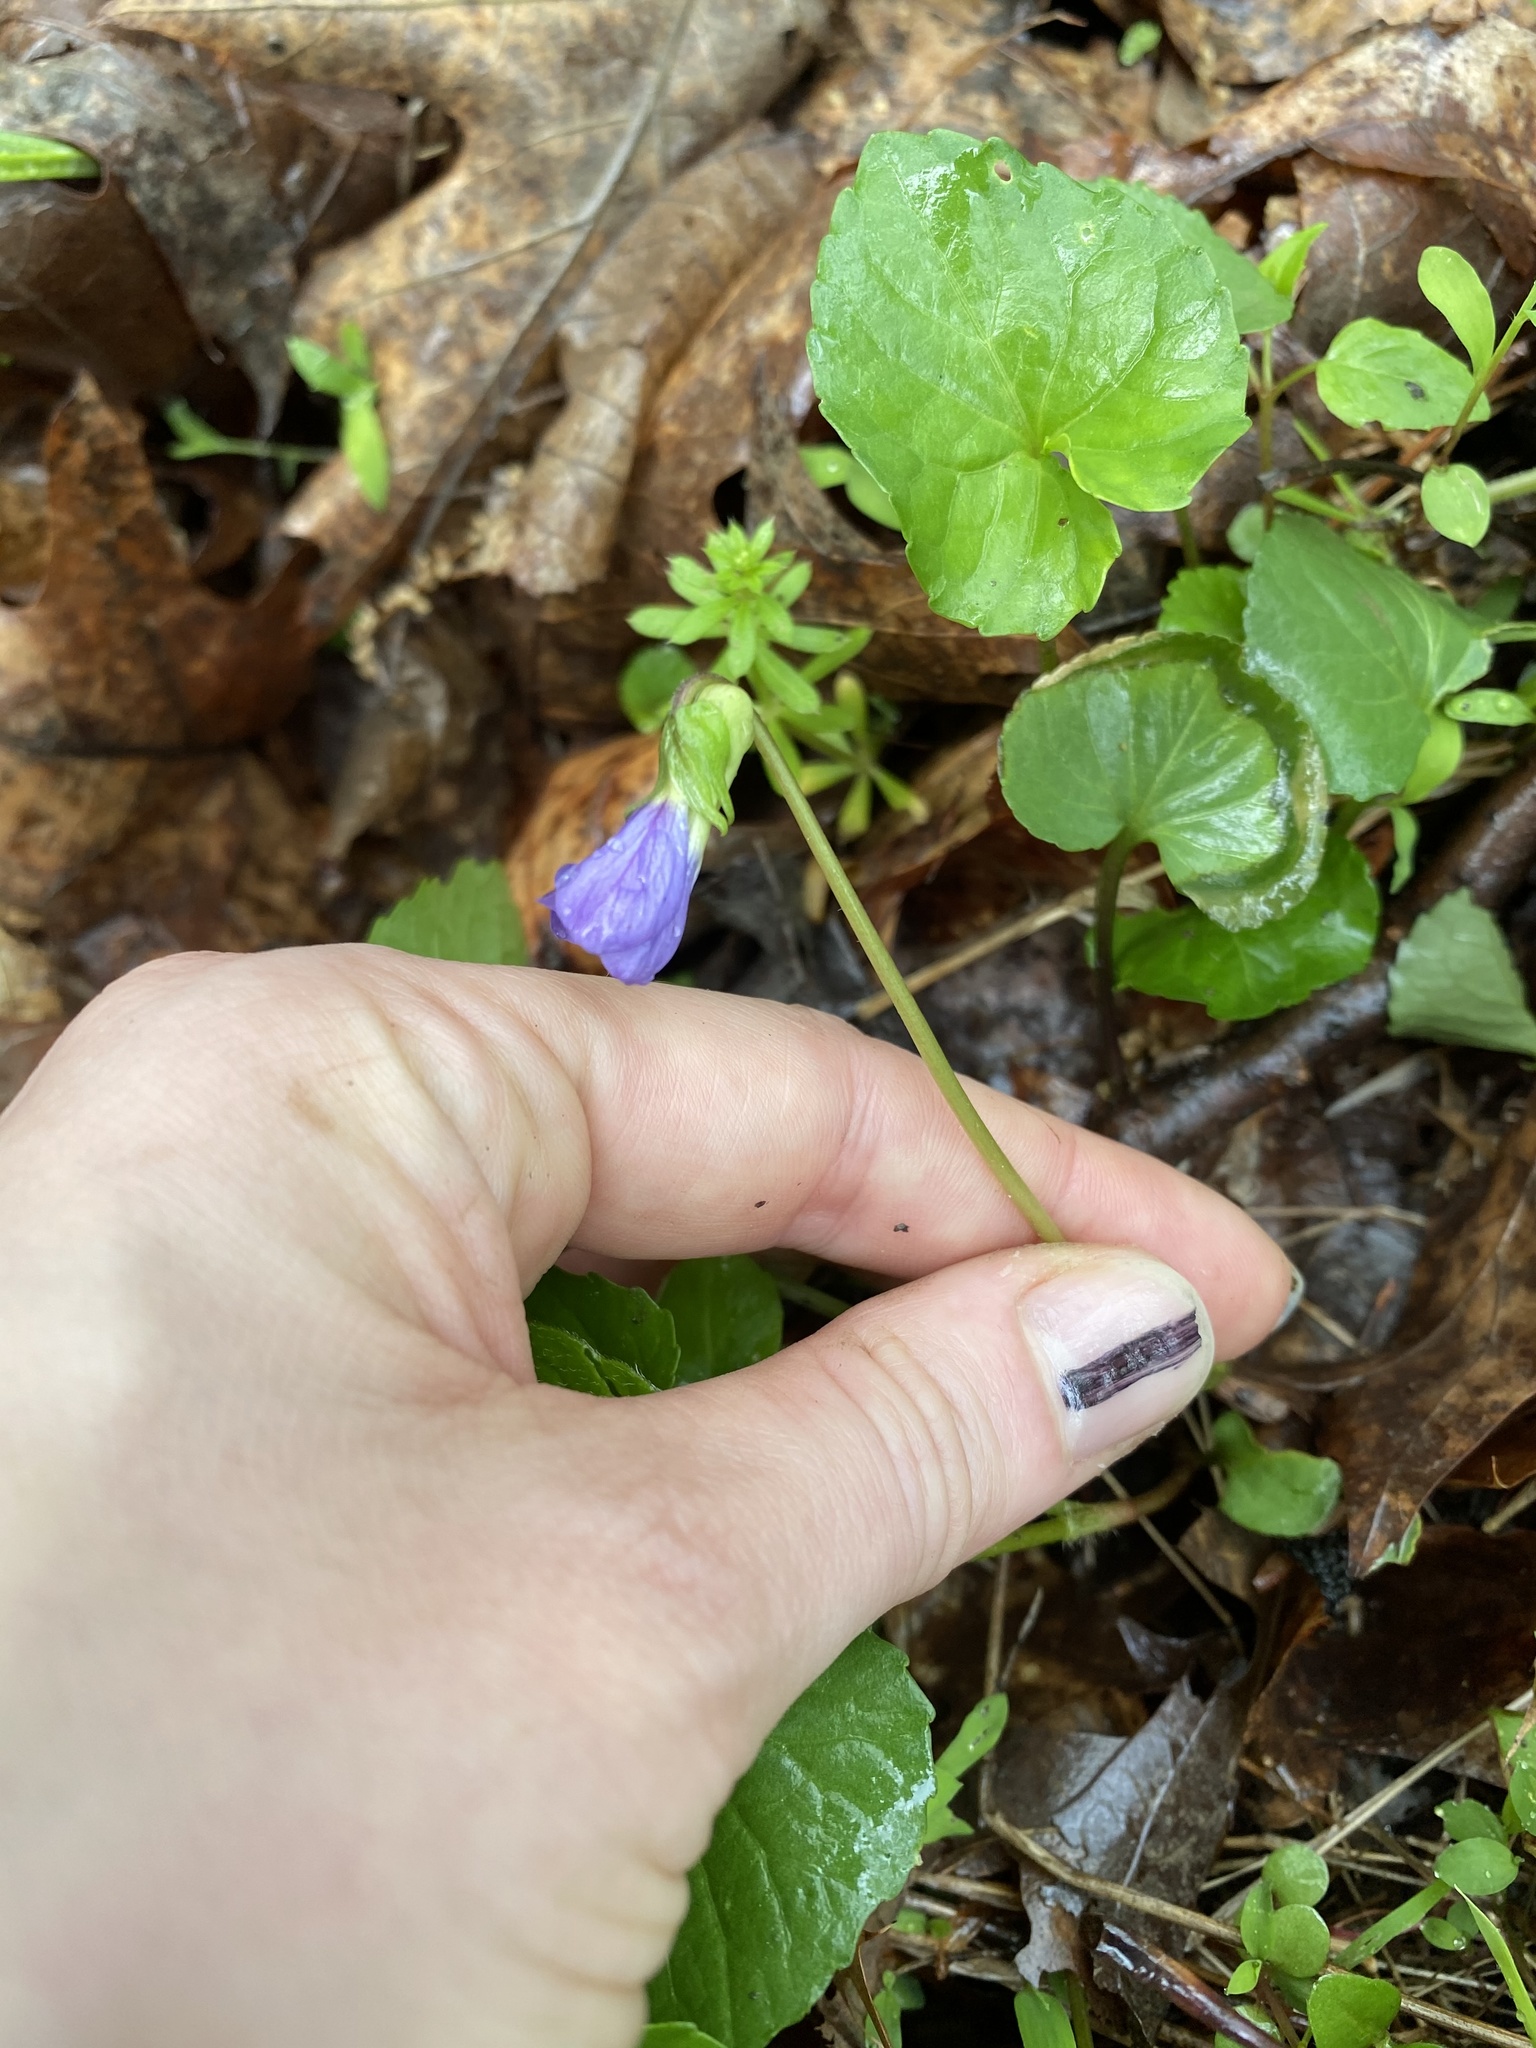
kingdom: Plantae
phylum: Tracheophyta
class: Magnoliopsida
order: Malpighiales
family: Violaceae
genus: Viola
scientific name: Viola sororia
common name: Dooryard violet
